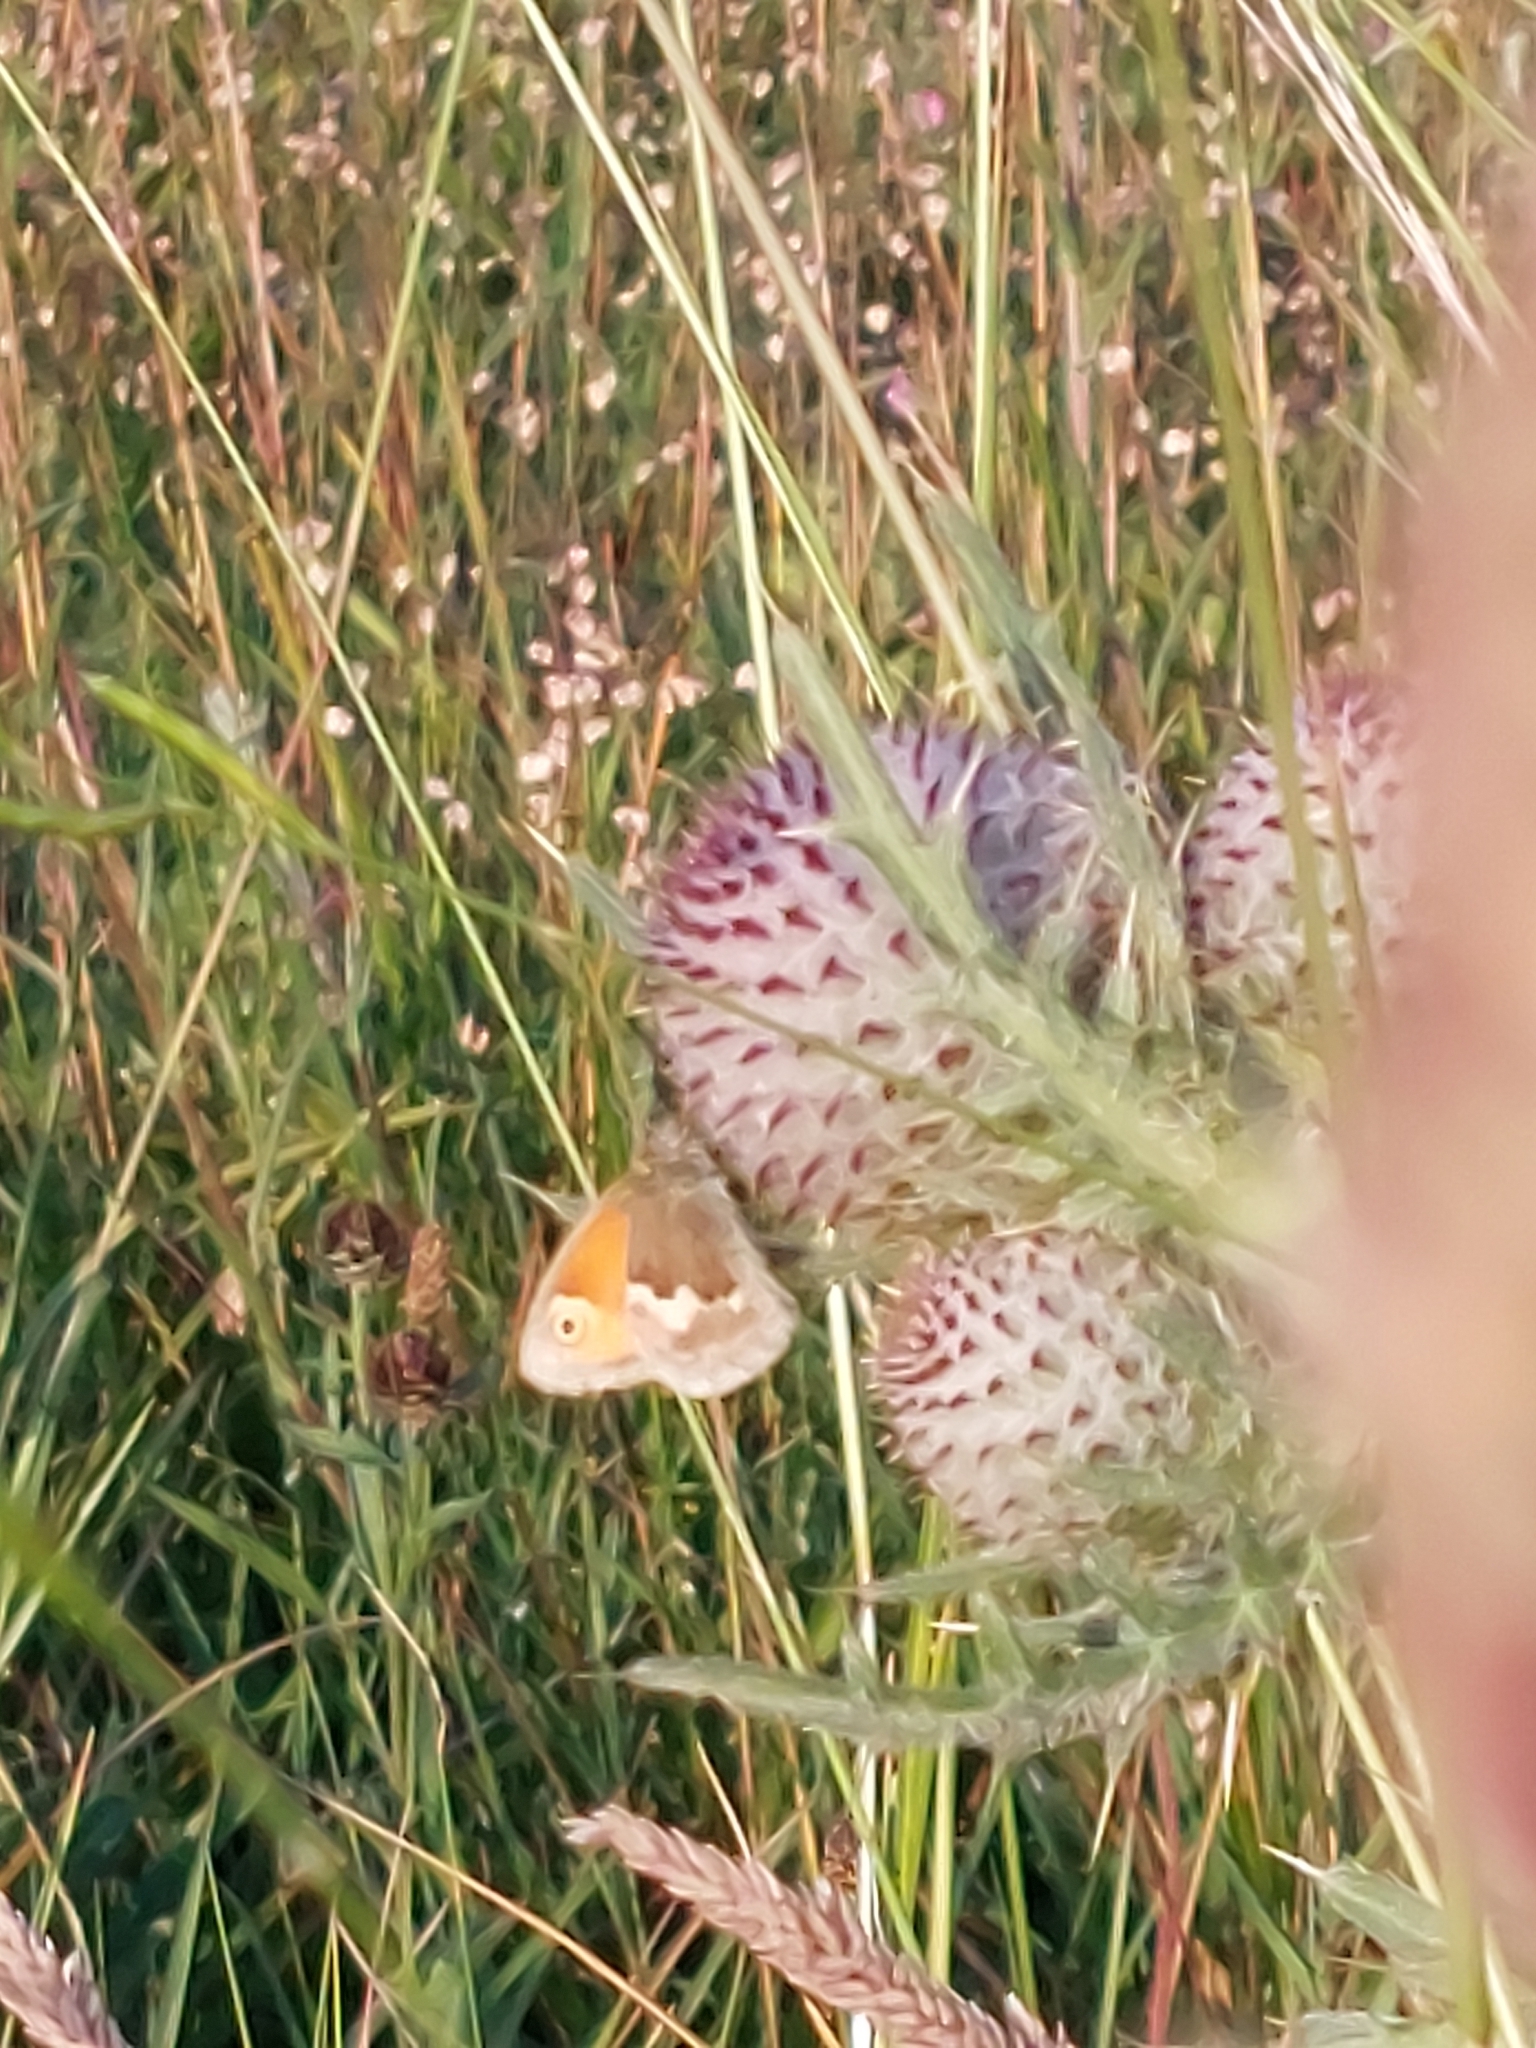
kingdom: Animalia
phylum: Arthropoda
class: Insecta
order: Lepidoptera
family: Nymphalidae
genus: Coenonympha
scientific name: Coenonympha pamphilus
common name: Small heath
